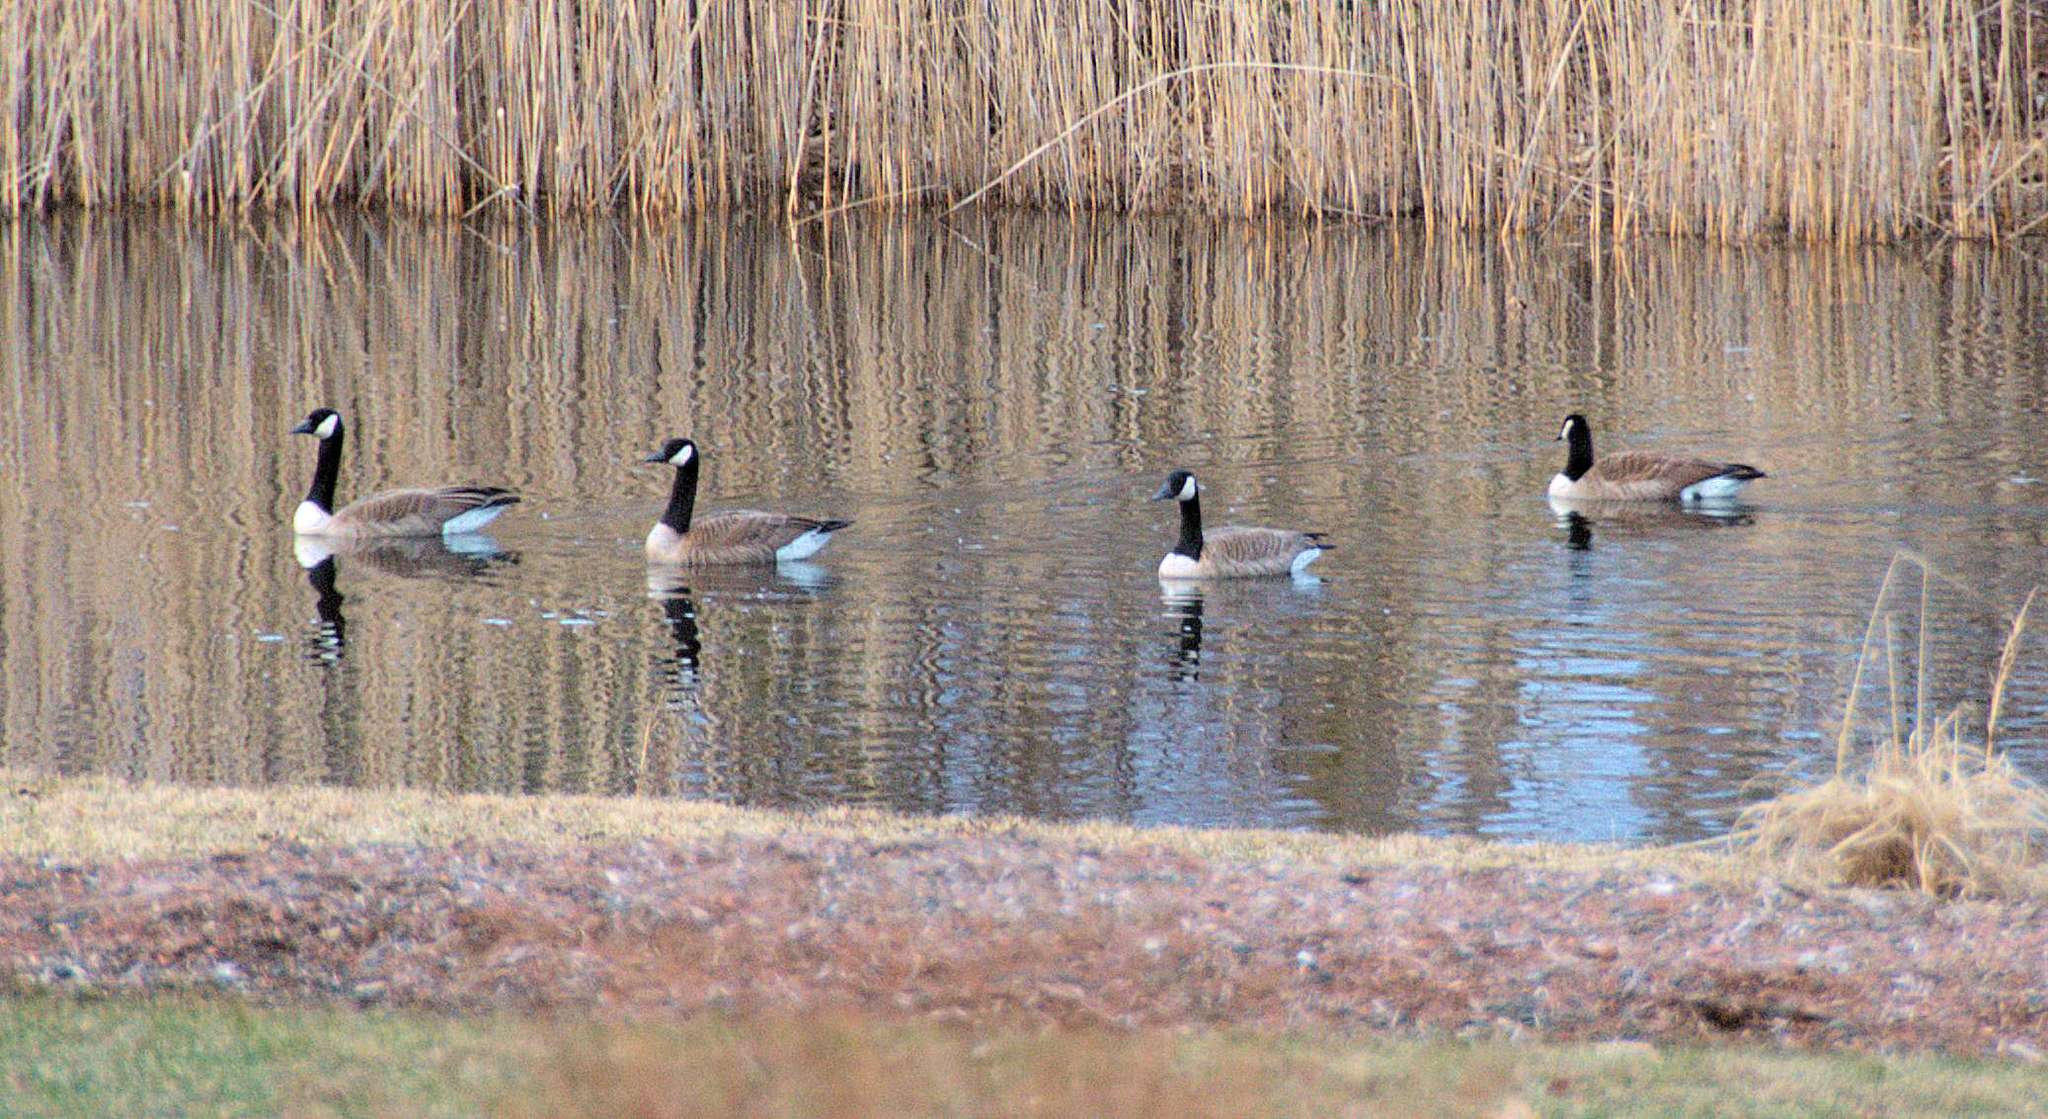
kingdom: Animalia
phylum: Chordata
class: Aves
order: Anseriformes
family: Anatidae
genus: Branta
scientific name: Branta canadensis
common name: Canada goose
